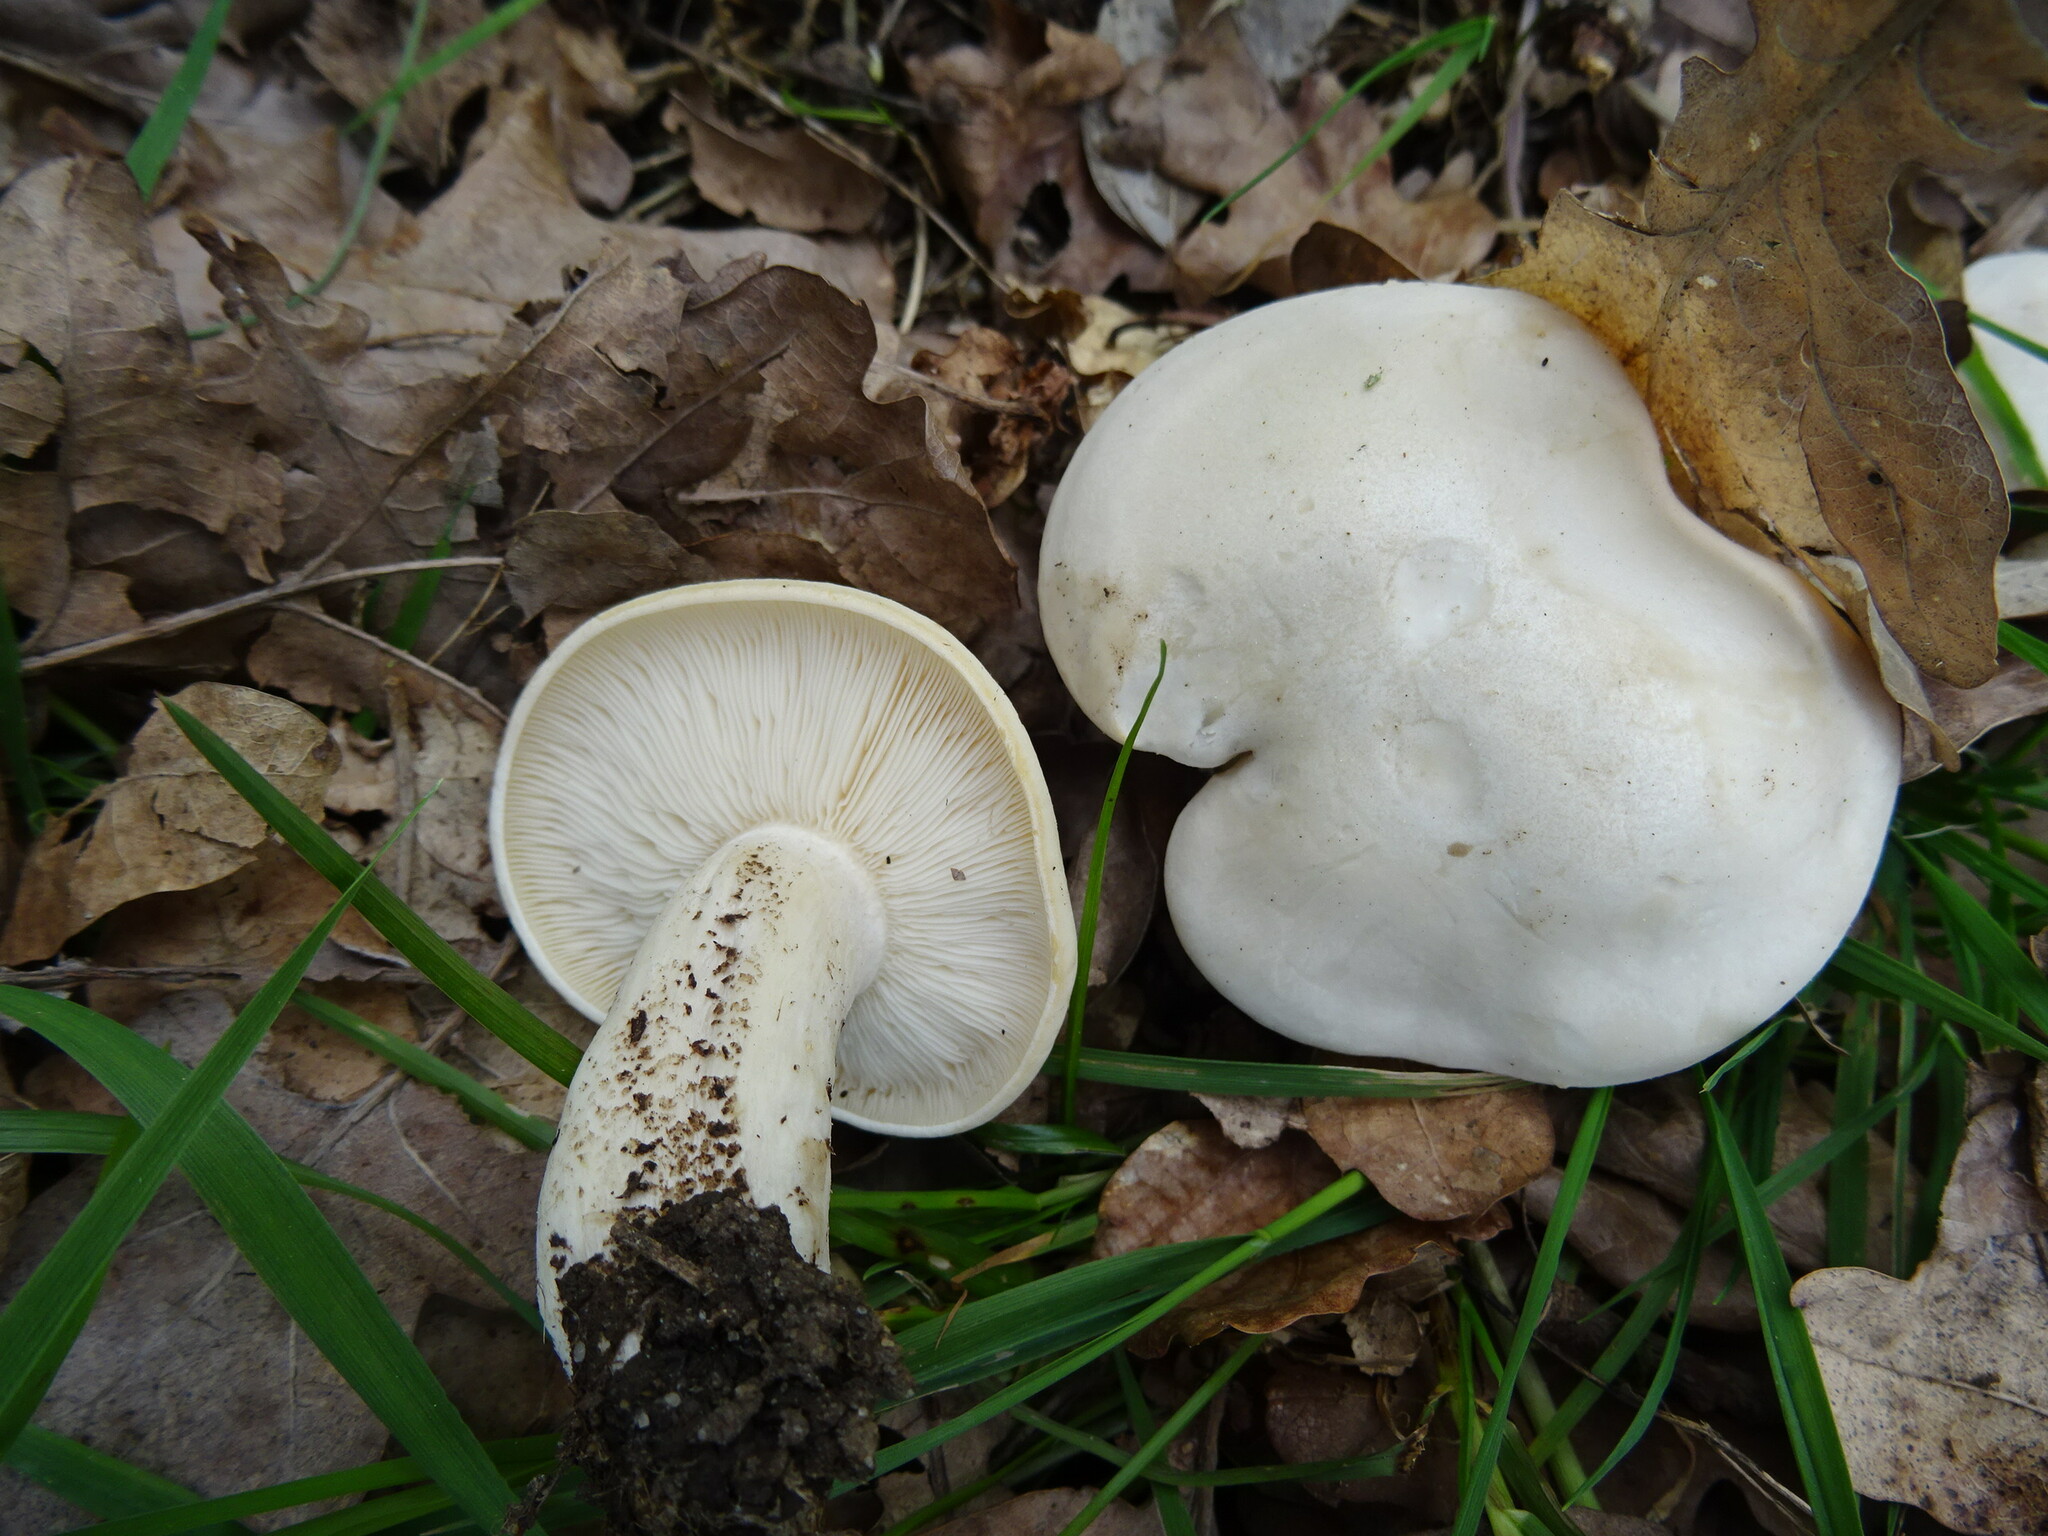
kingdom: Fungi
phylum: Basidiomycota
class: Agaricomycetes
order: Agaricales
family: Lyophyllaceae
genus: Calocybe
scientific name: Calocybe gambosa
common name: St. george's mushroom
